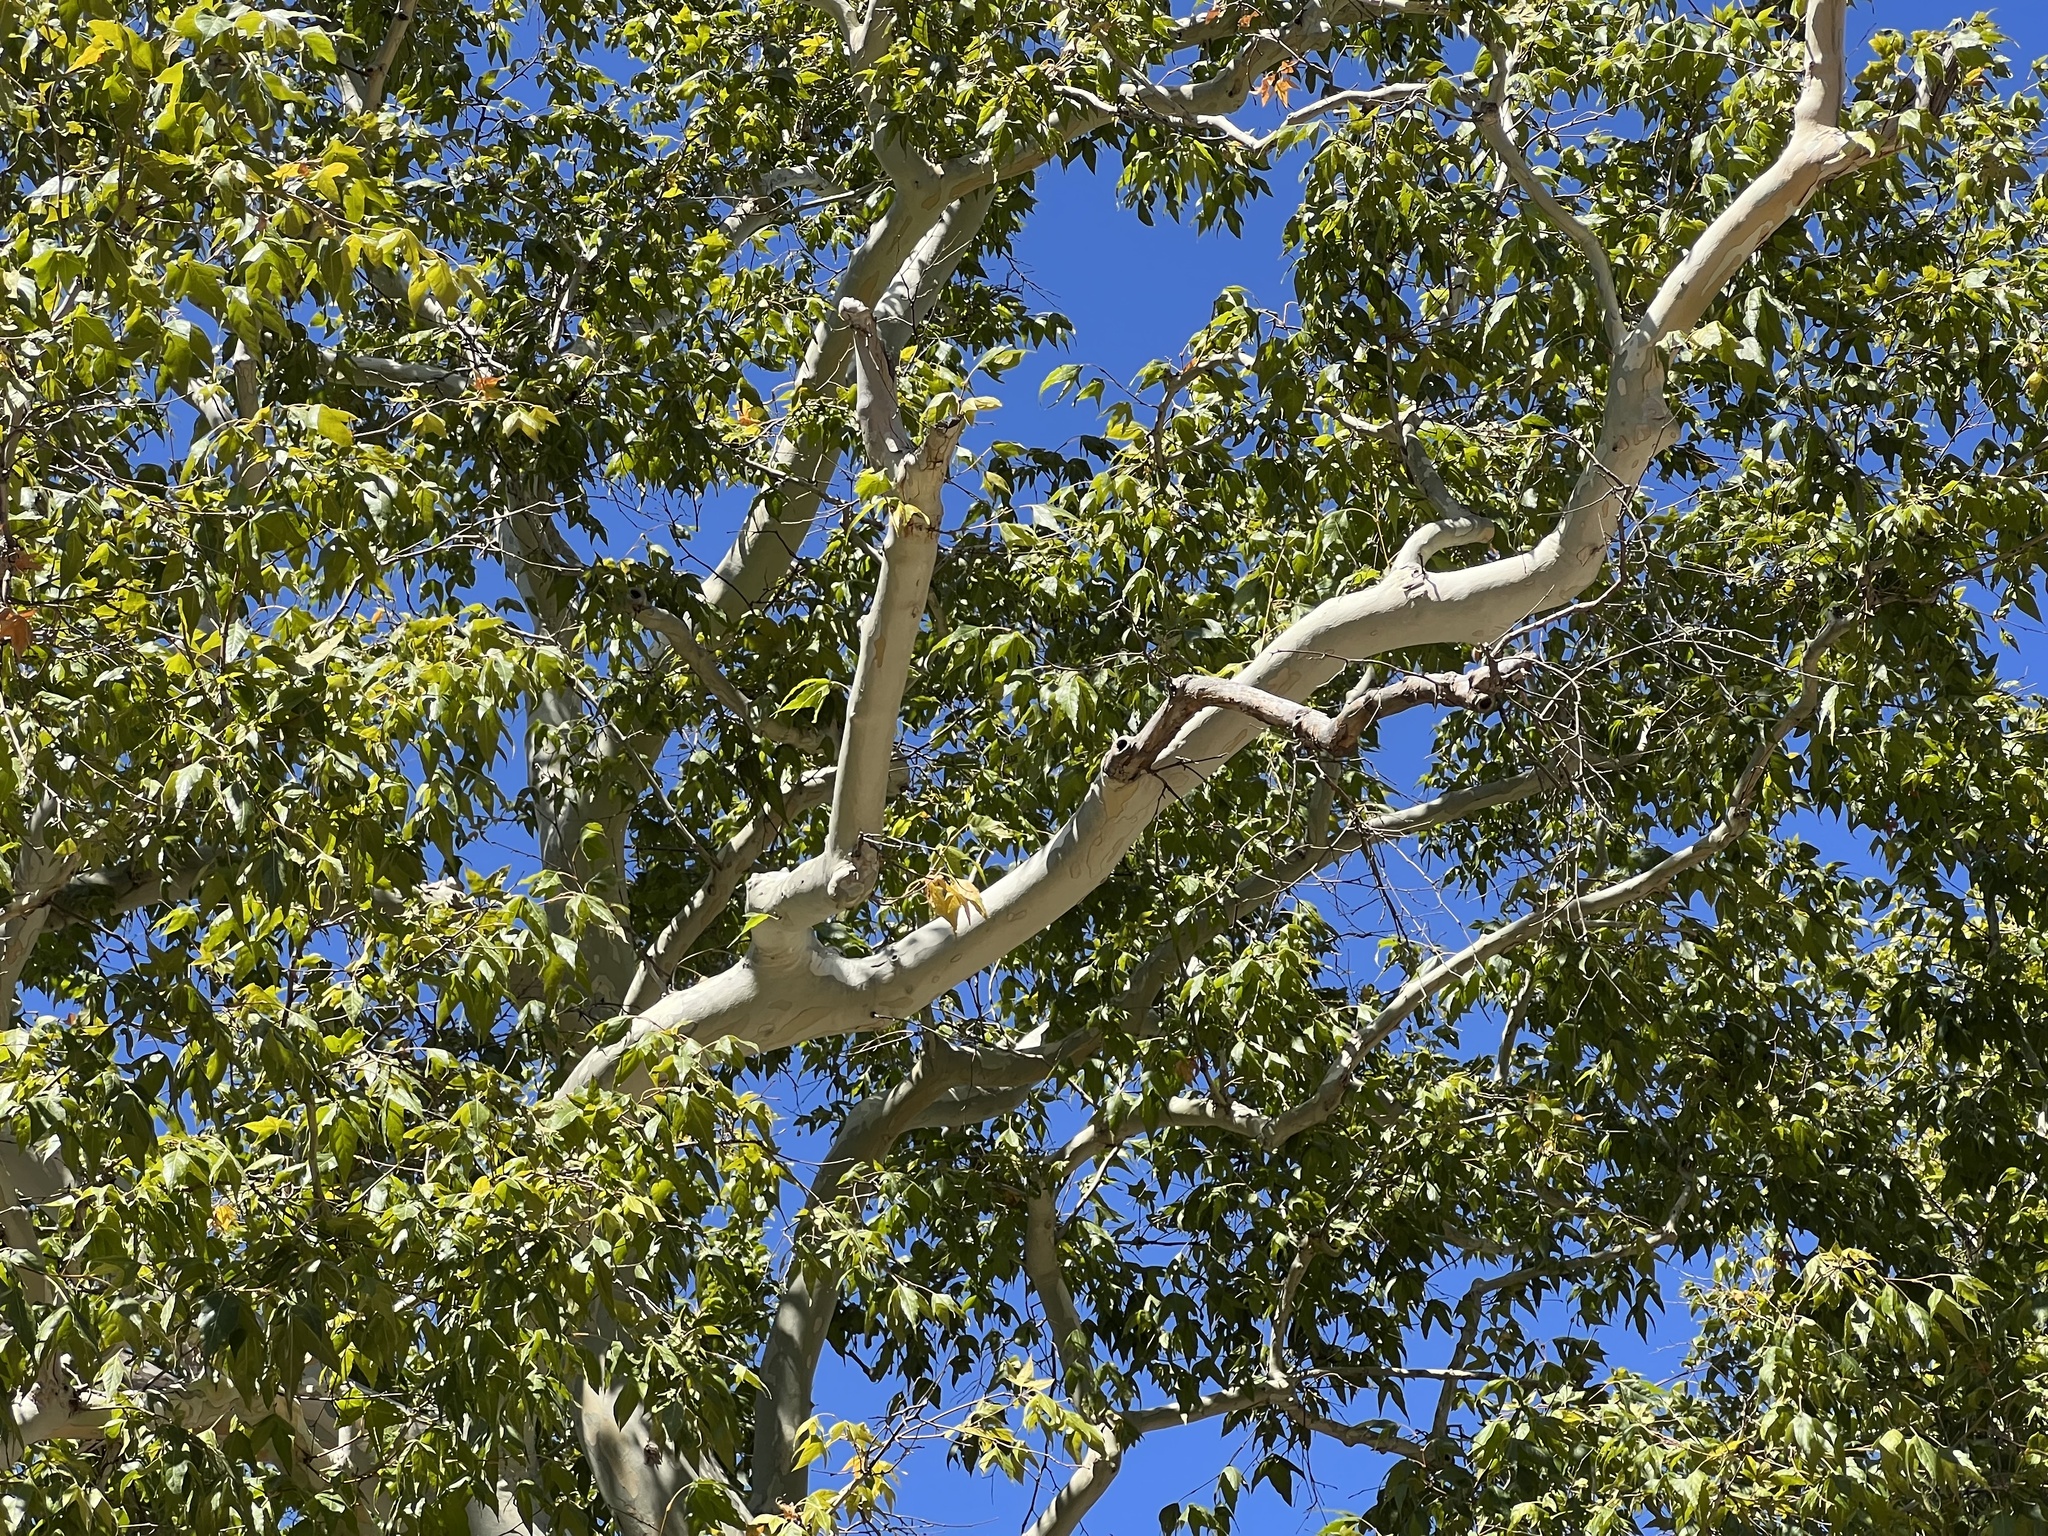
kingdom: Plantae
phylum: Tracheophyta
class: Magnoliopsida
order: Proteales
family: Platanaceae
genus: Platanus
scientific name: Platanus wrightii
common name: Arizona sycamore
